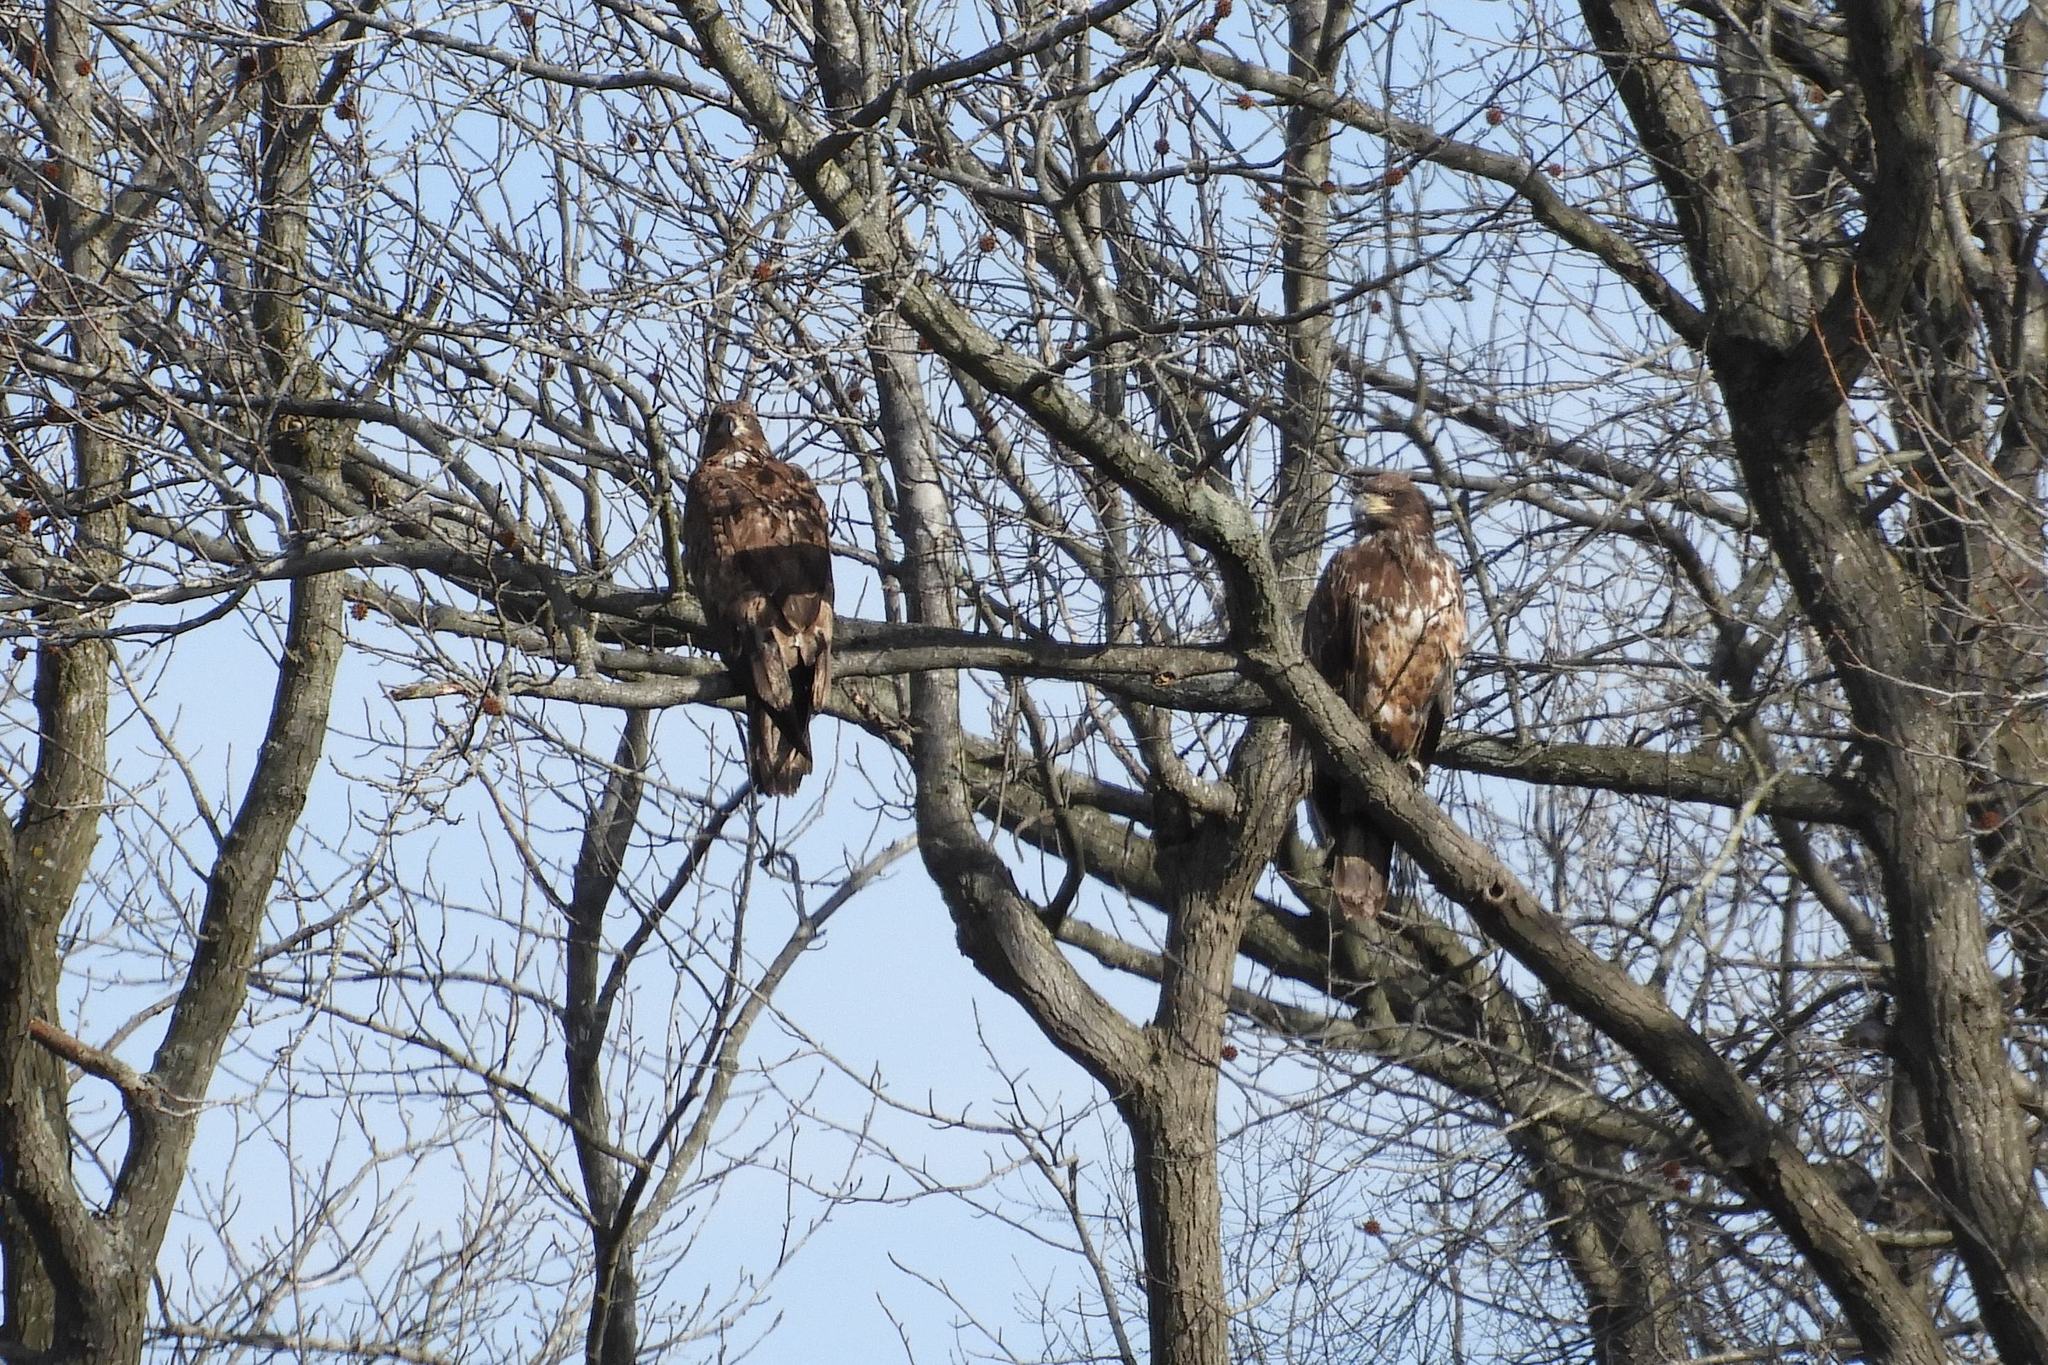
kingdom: Animalia
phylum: Chordata
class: Aves
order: Accipitriformes
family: Accipitridae
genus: Haliaeetus
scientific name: Haliaeetus leucocephalus
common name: Bald eagle
